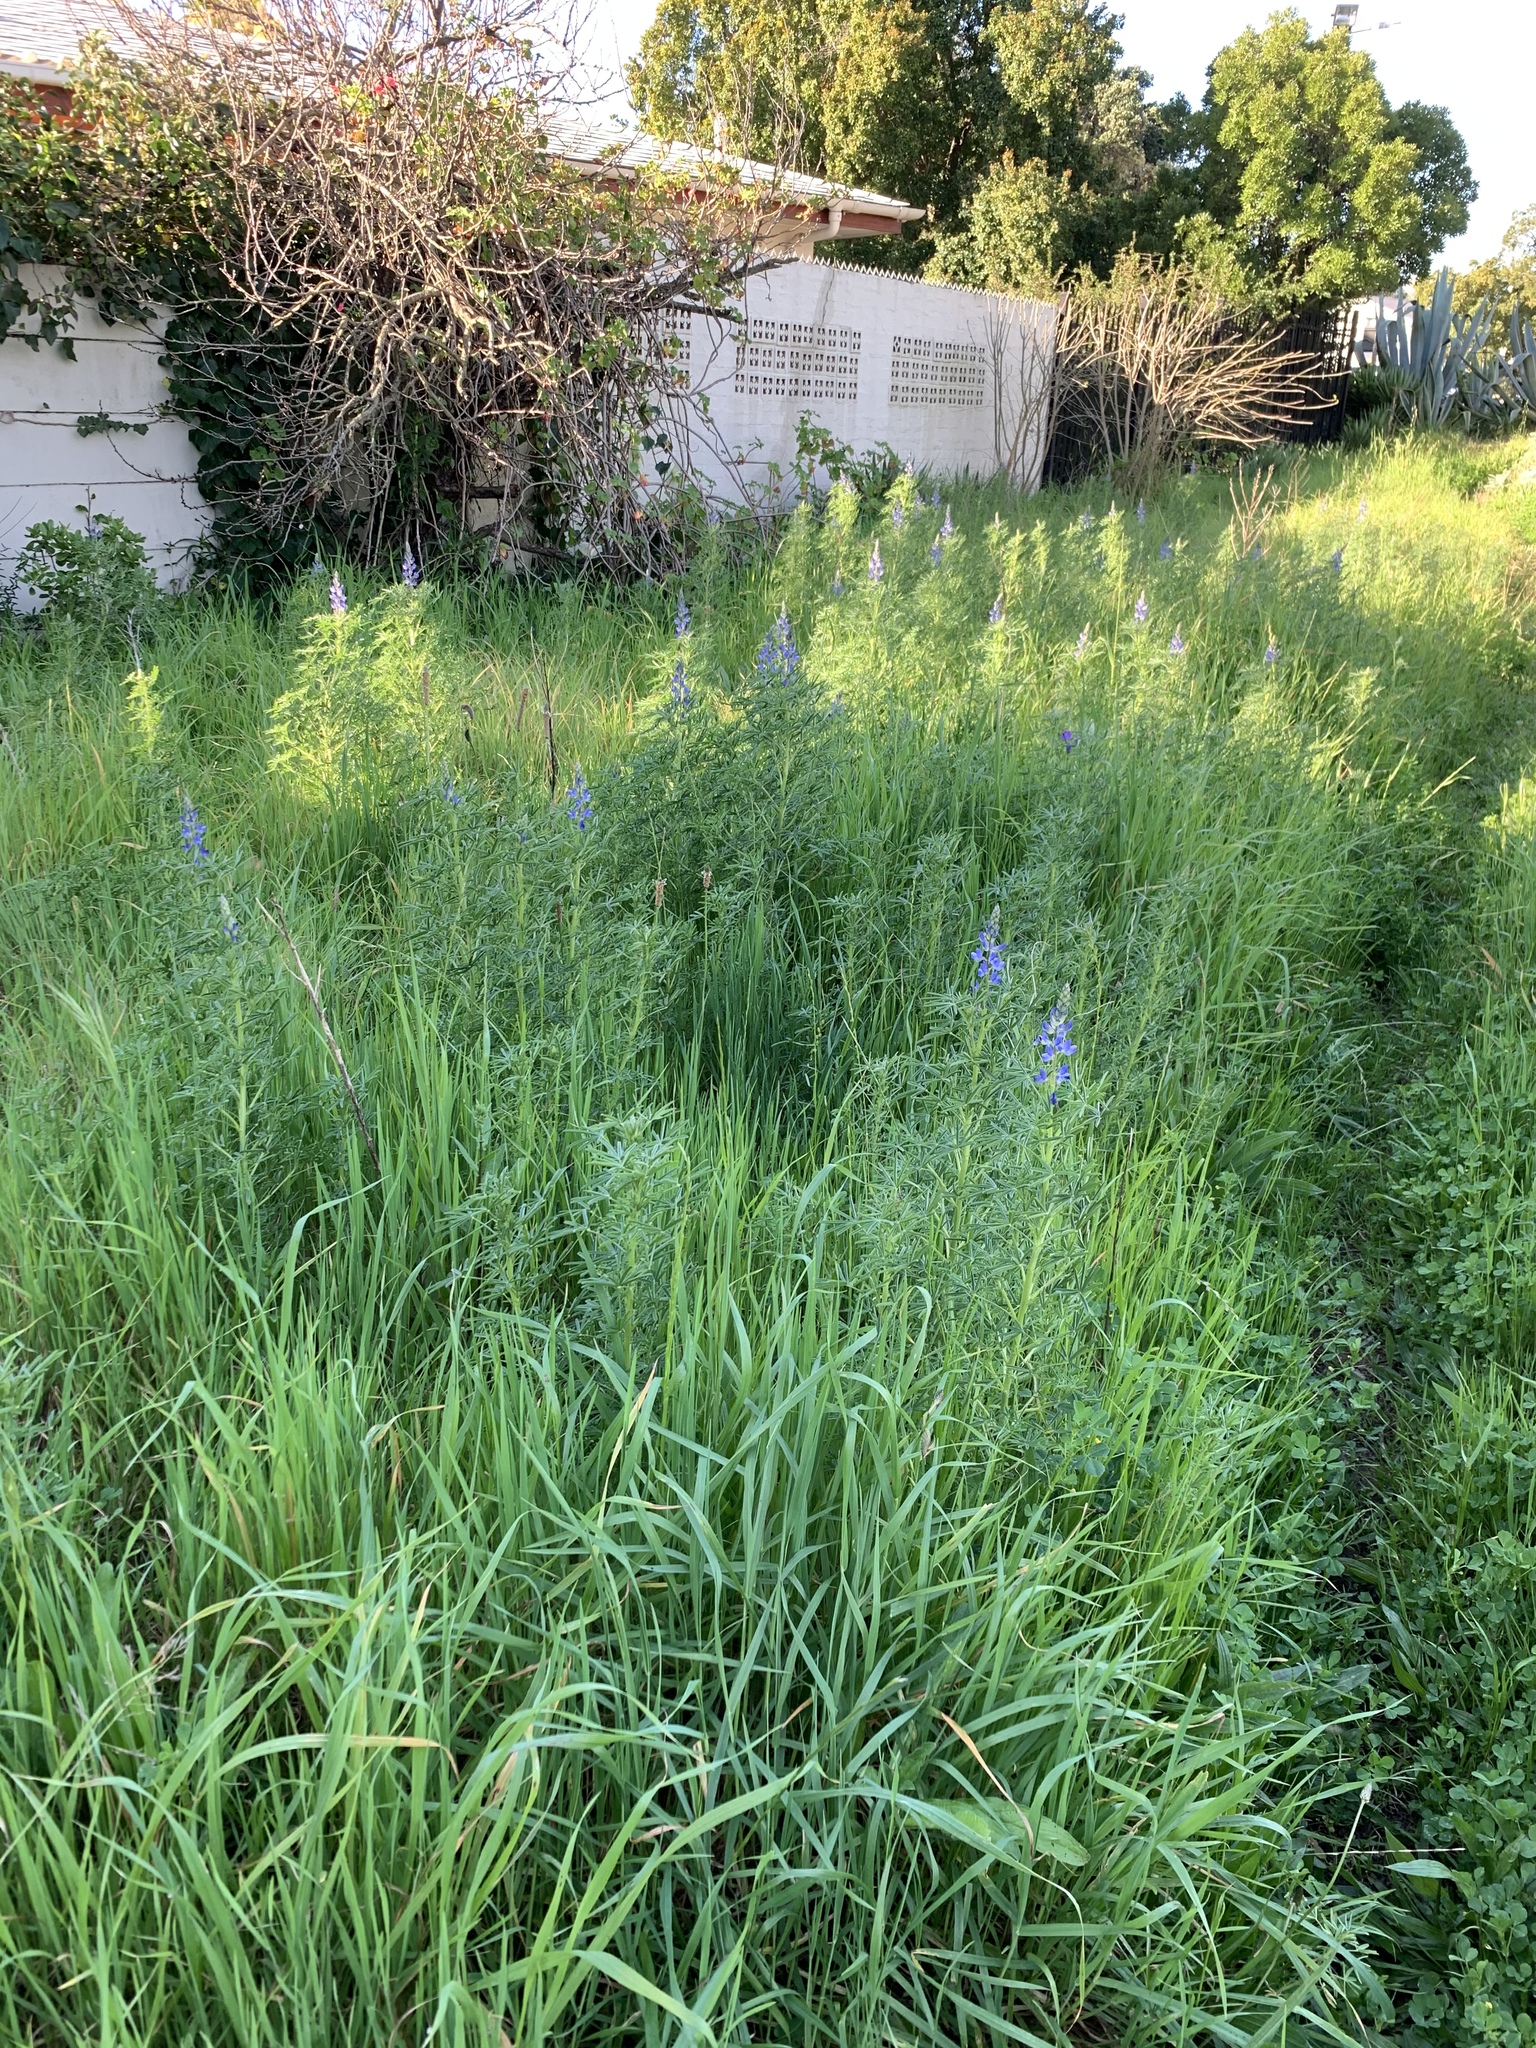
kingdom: Plantae
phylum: Tracheophyta
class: Magnoliopsida
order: Fabales
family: Fabaceae
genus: Lupinus
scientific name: Lupinus angustifolius
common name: Narrow-leaved lupin
